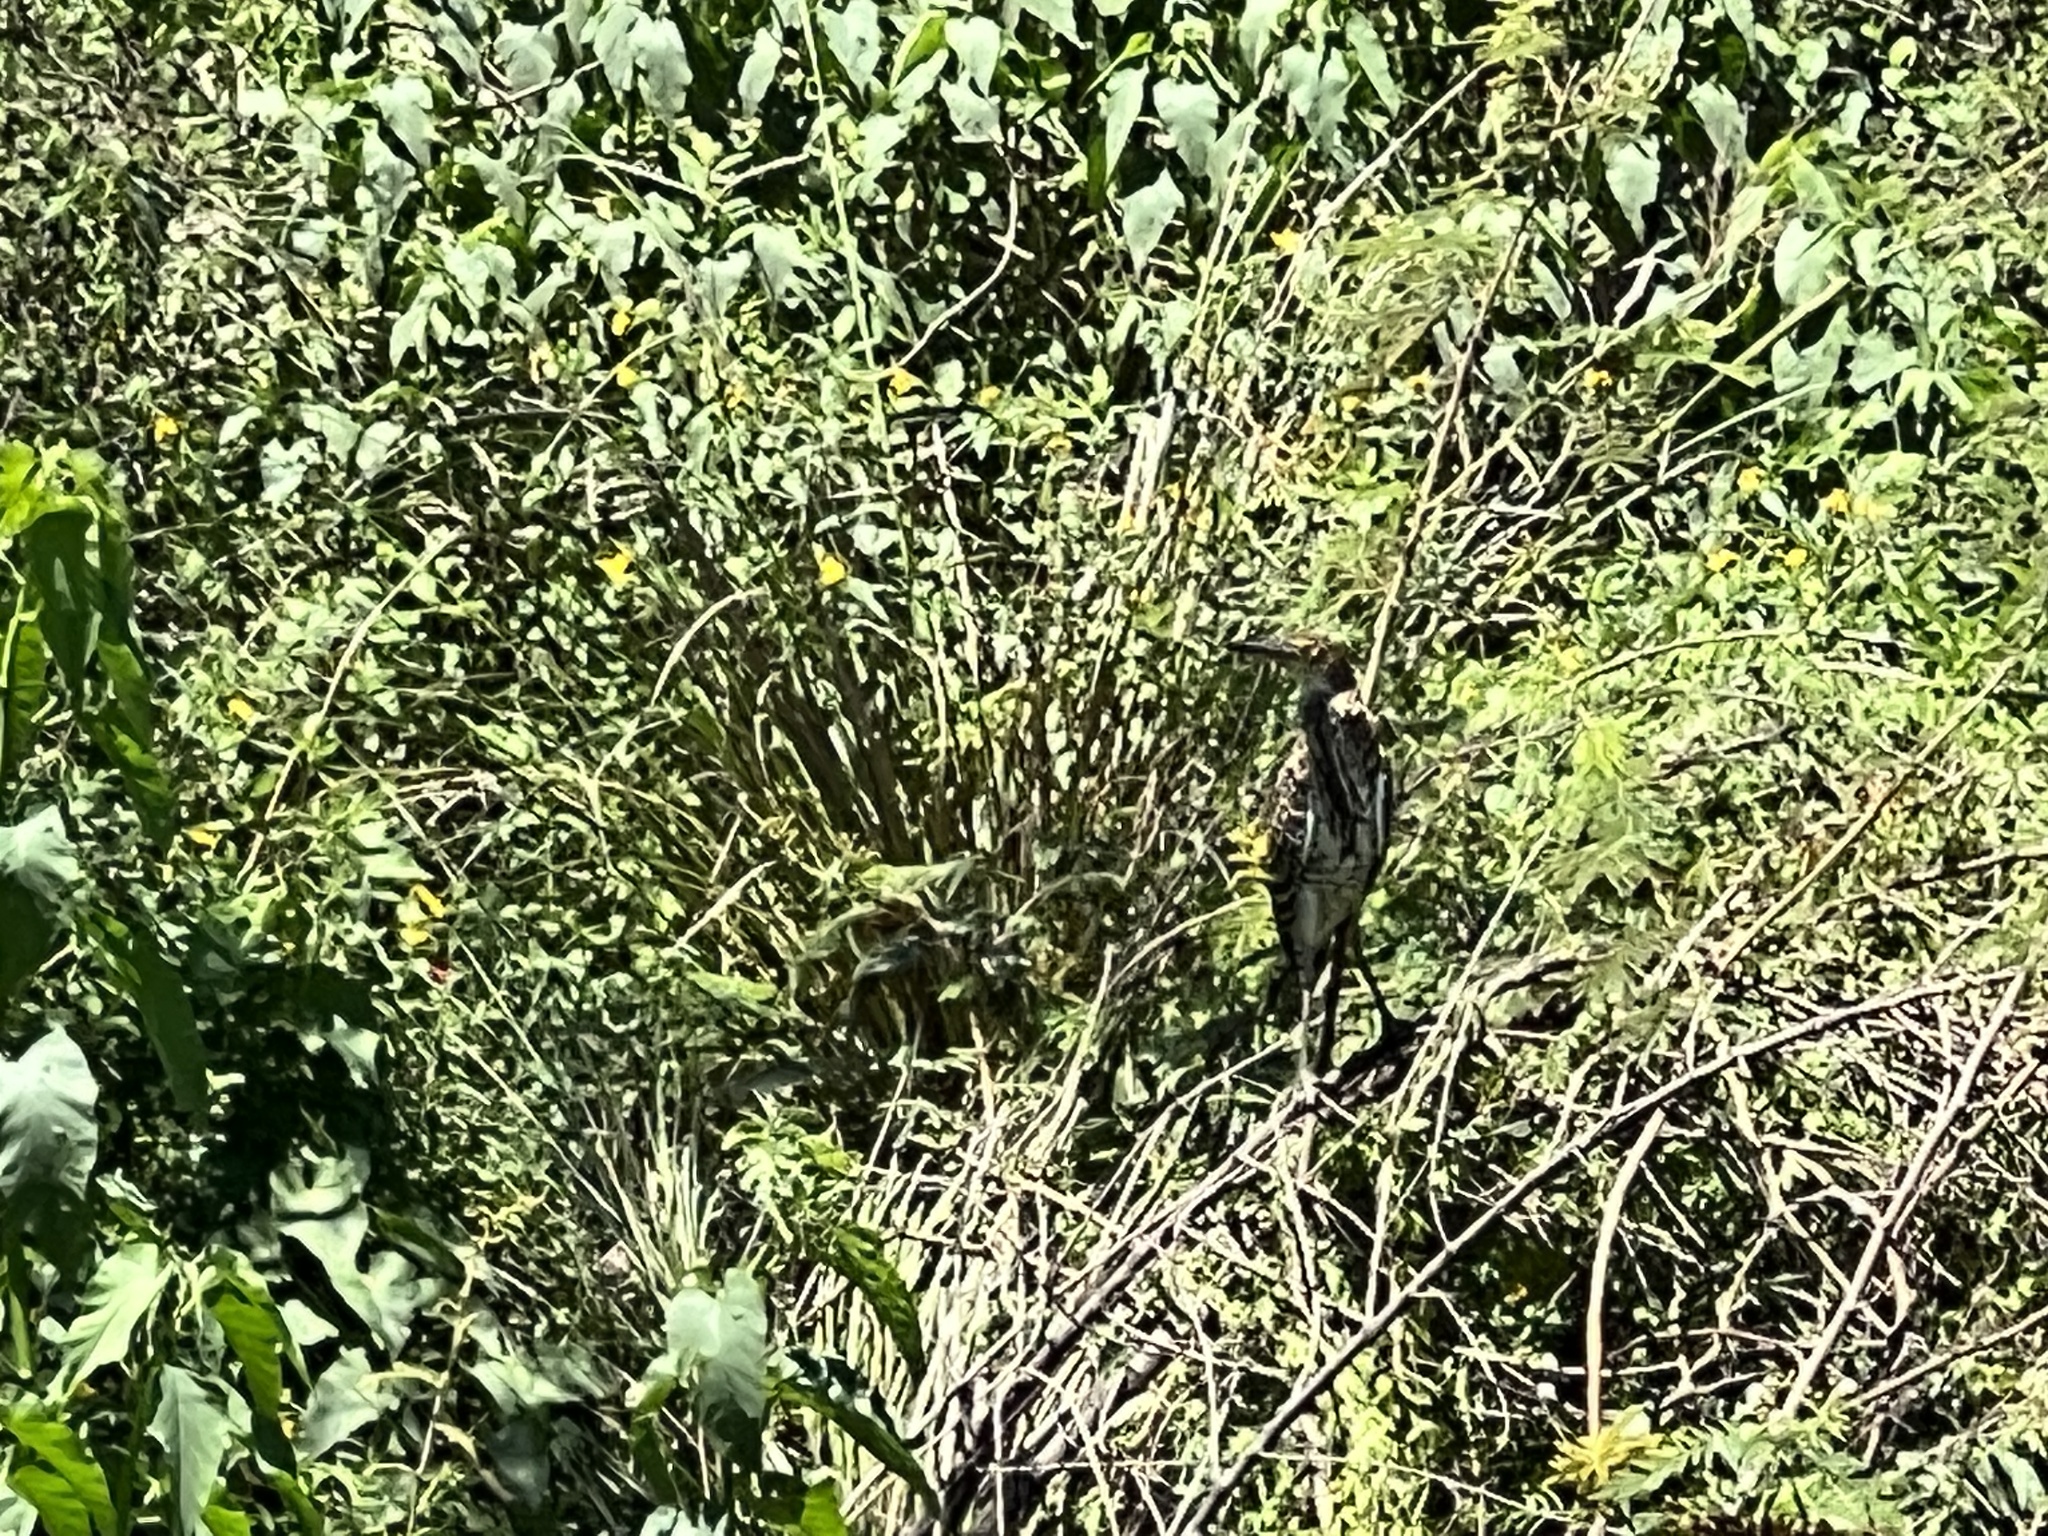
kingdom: Animalia
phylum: Chordata
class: Aves
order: Pelecaniformes
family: Ardeidae
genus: Tigrisoma
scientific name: Tigrisoma lineatum
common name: Rufescent tiger-heron
